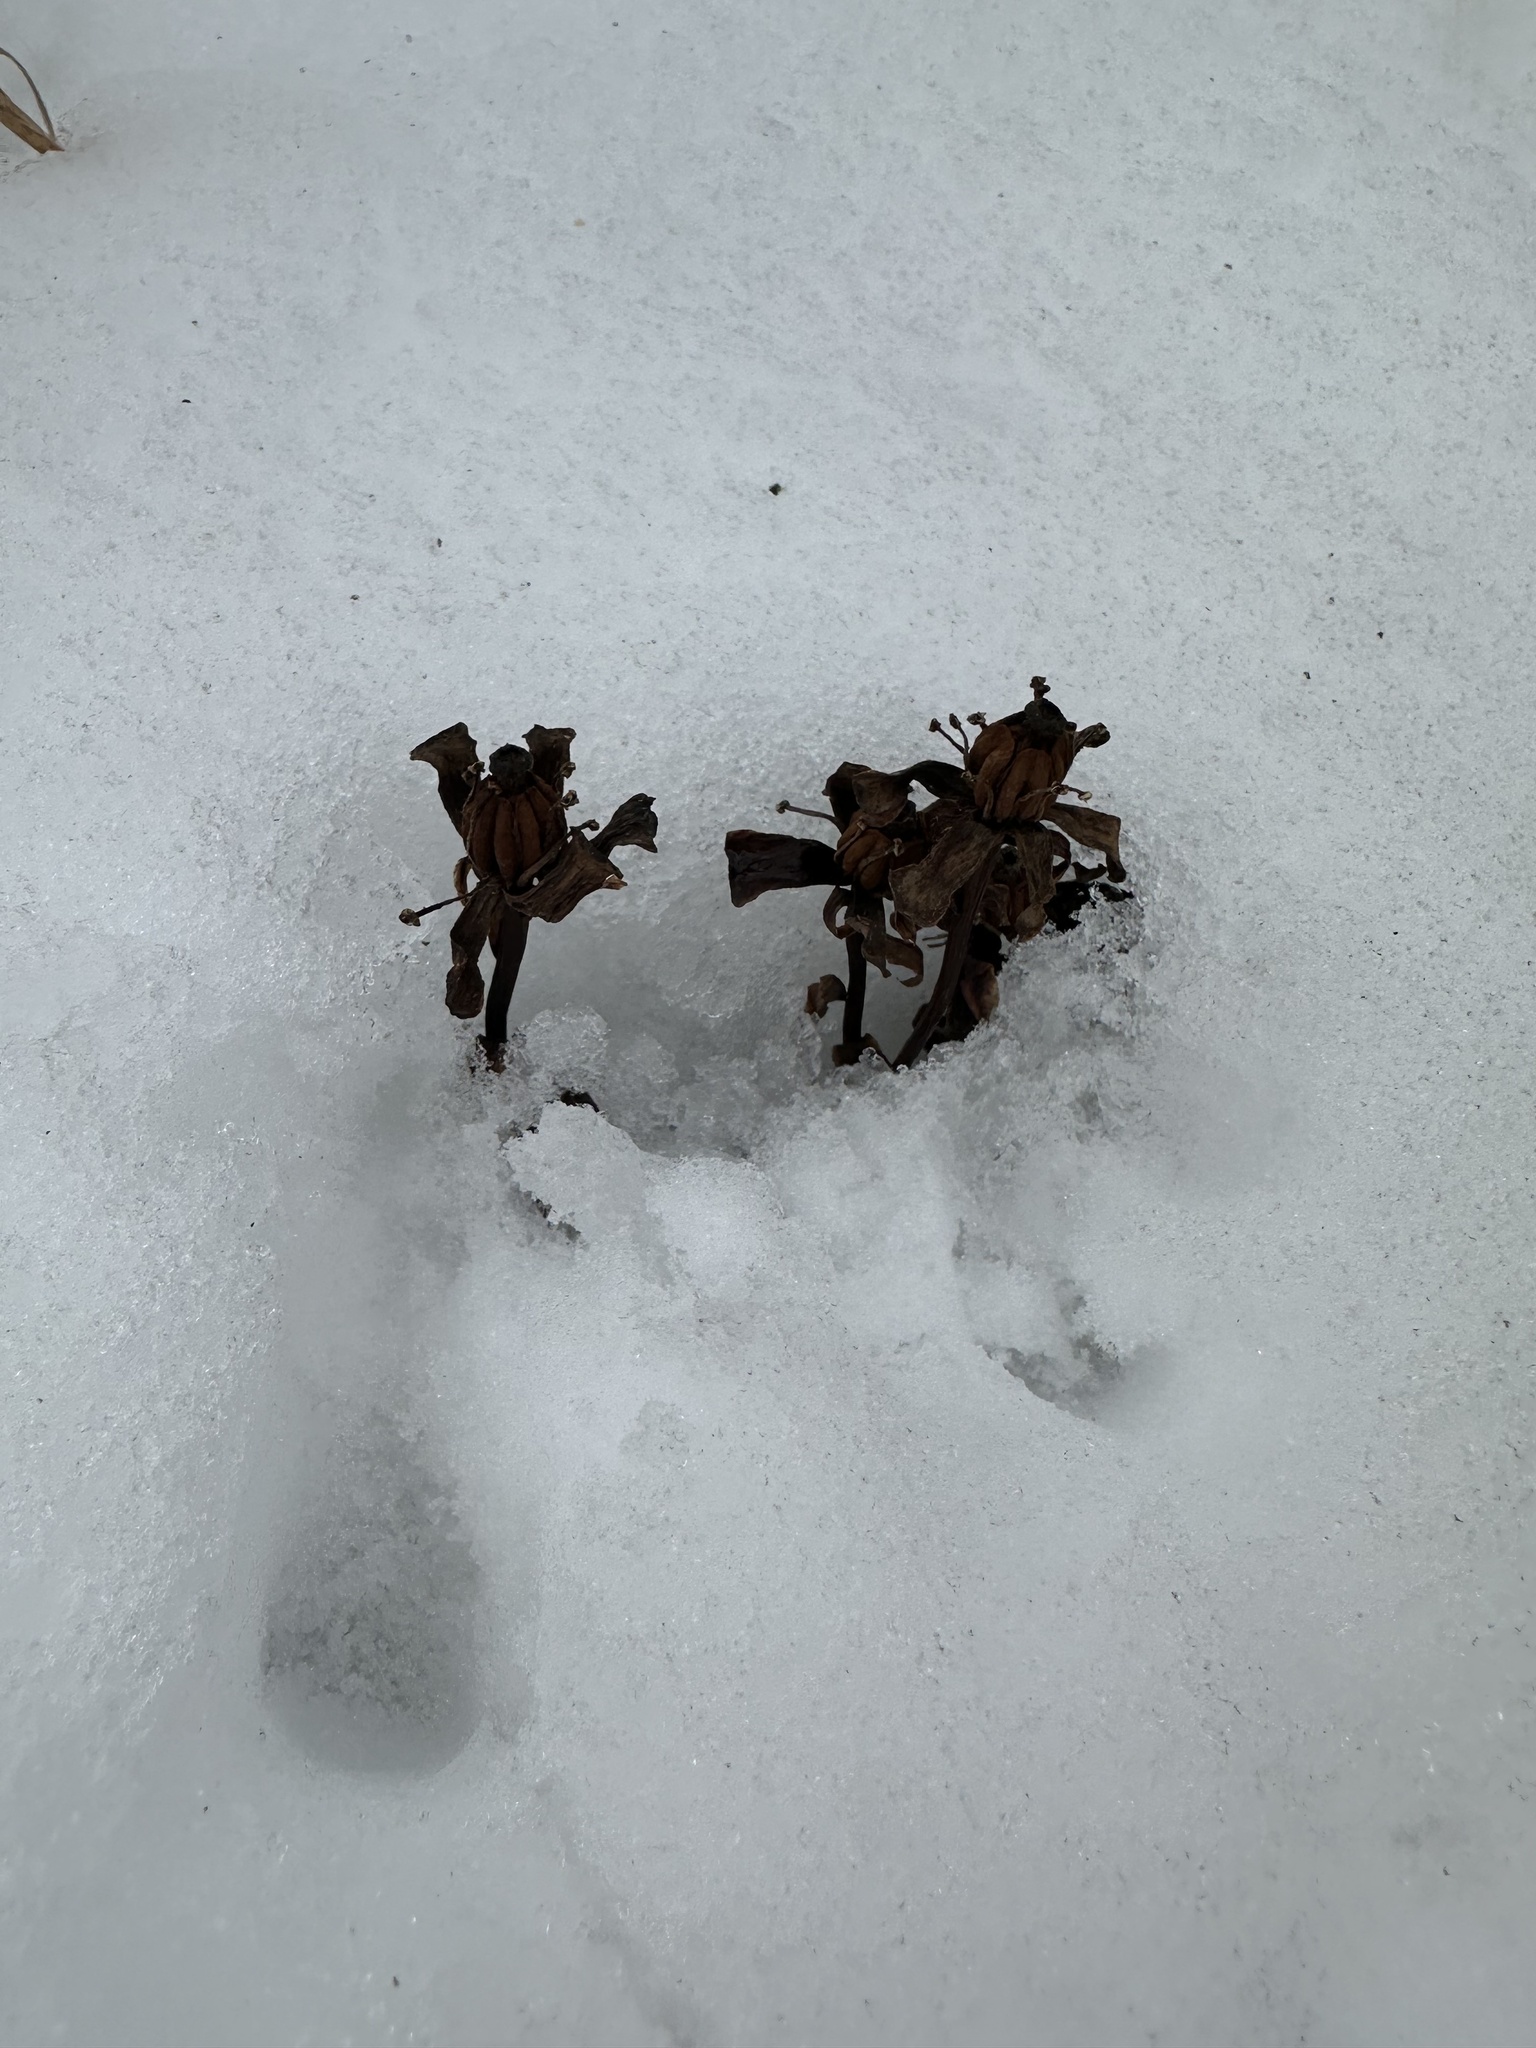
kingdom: Plantae
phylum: Tracheophyta
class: Magnoliopsida
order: Ericales
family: Ericaceae
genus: Monotropa
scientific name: Monotropa uniflora
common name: Convulsion root
